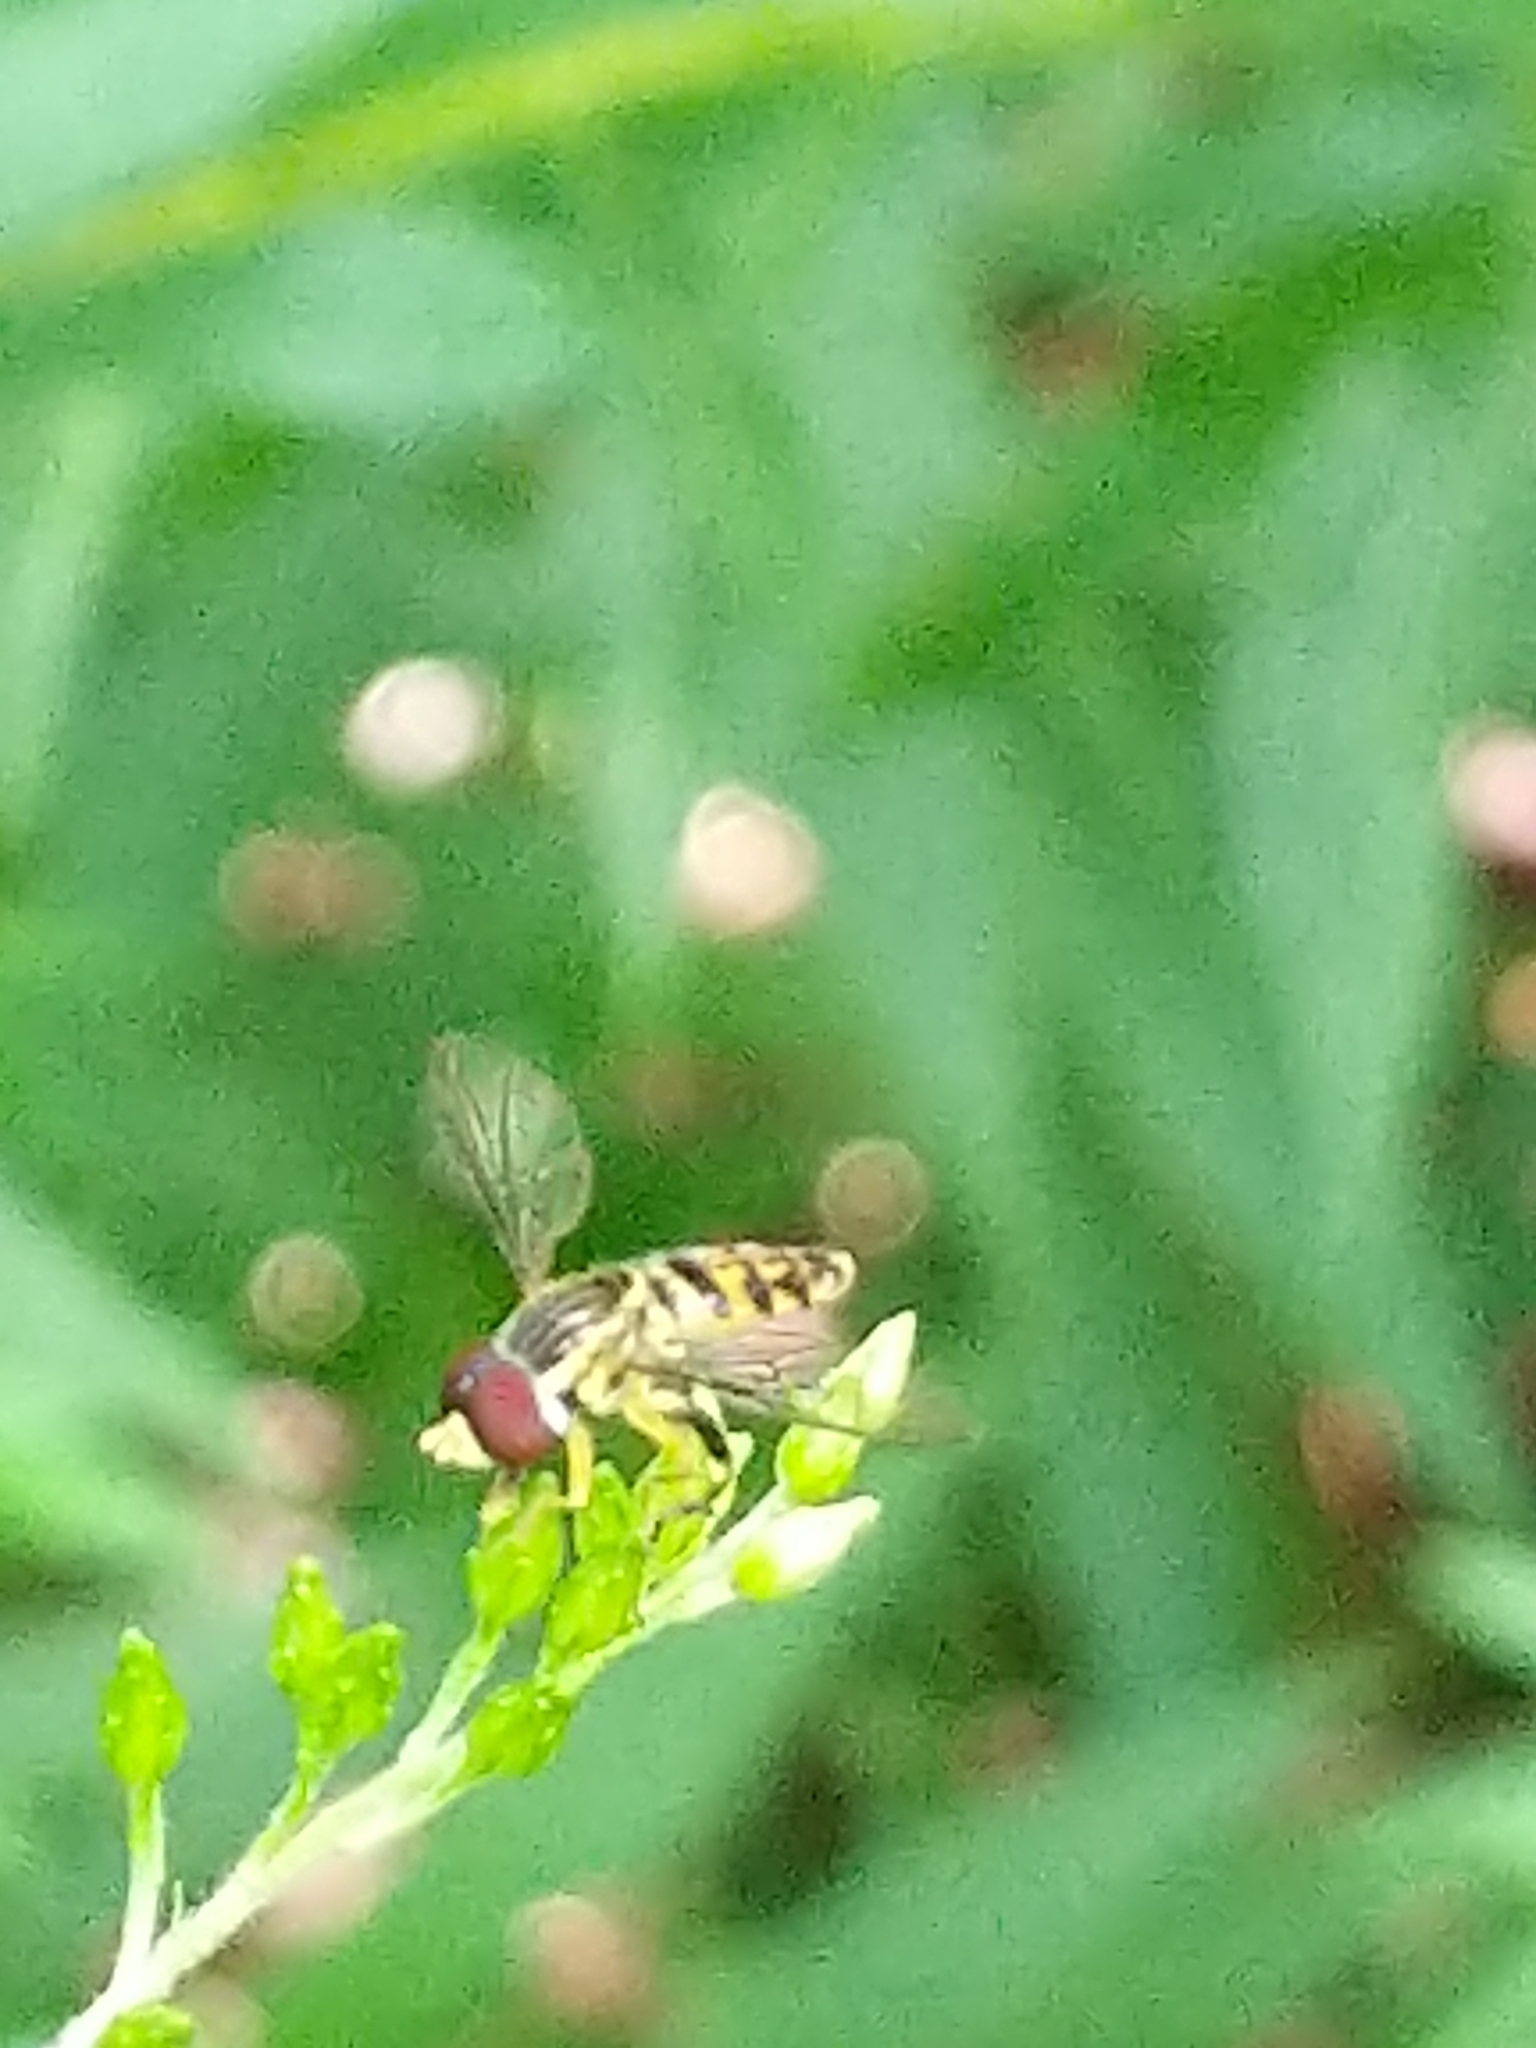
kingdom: Animalia
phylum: Arthropoda
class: Insecta
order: Diptera
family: Syrphidae
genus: Toxomerus
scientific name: Toxomerus geminatus
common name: Eastern calligrapher
